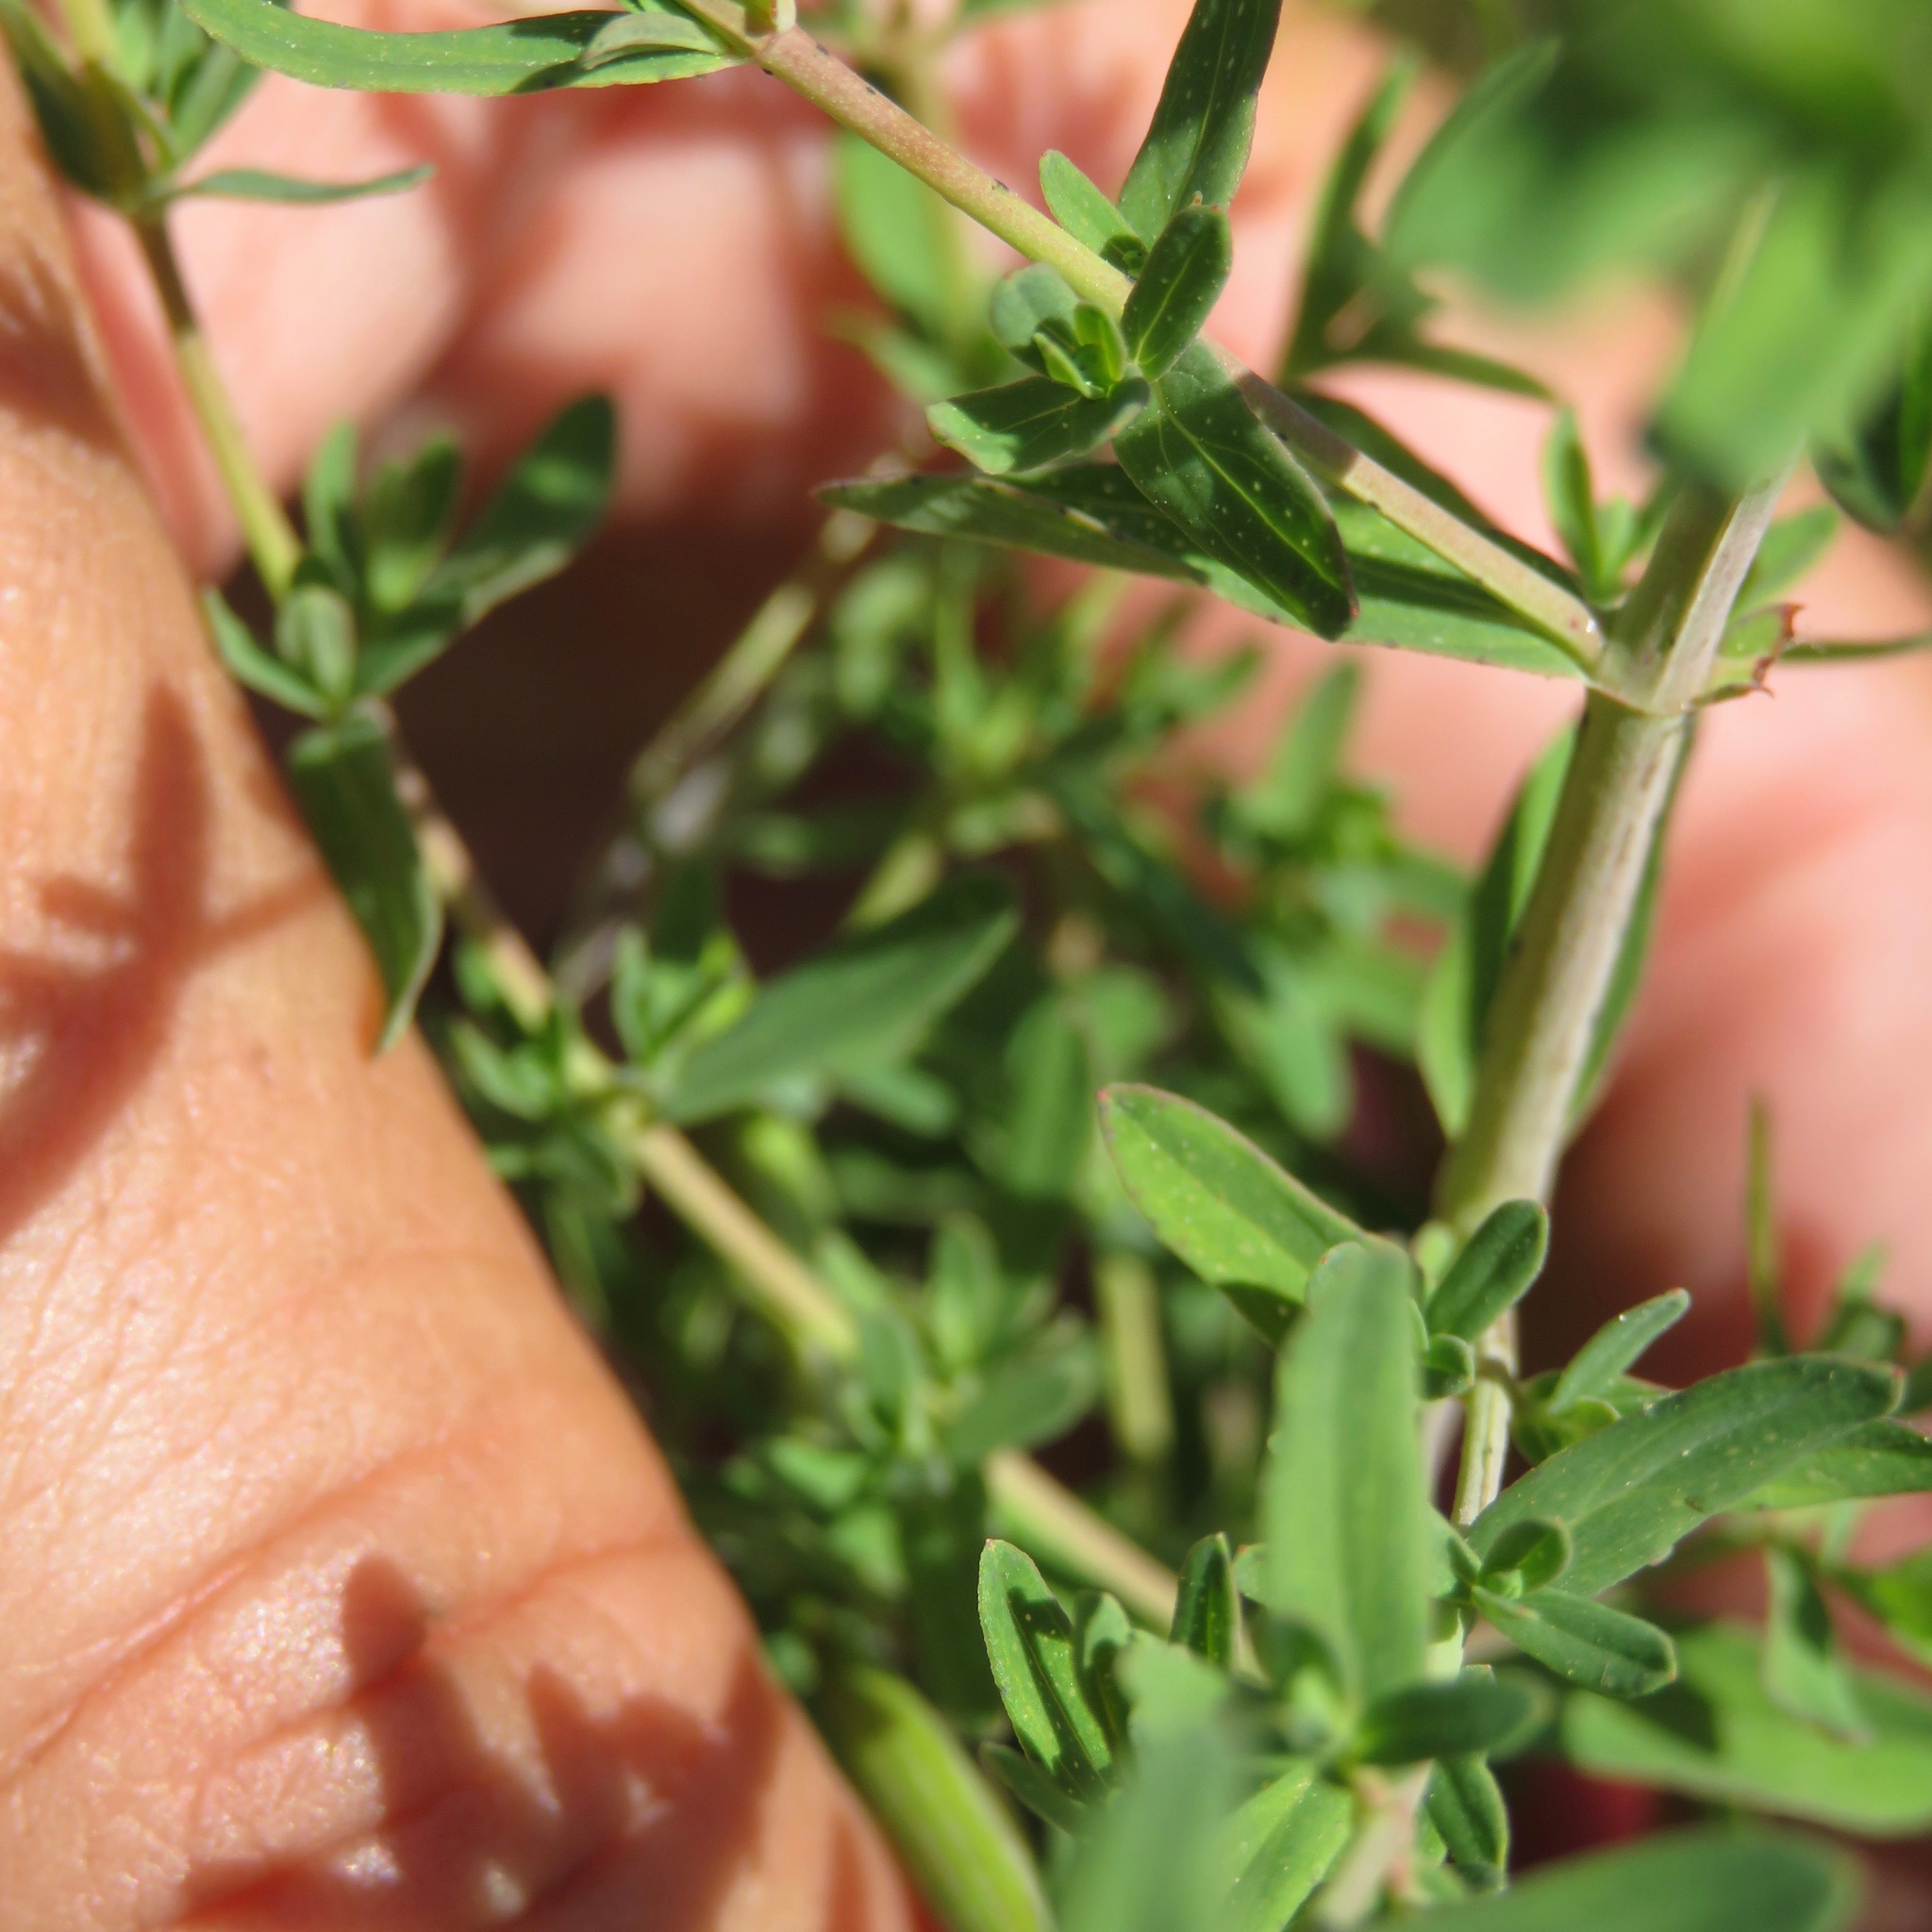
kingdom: Plantae
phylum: Tracheophyta
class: Magnoliopsida
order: Malpighiales
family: Hypericaceae
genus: Hypericum
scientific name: Hypericum perforatum
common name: Common st. johnswort
